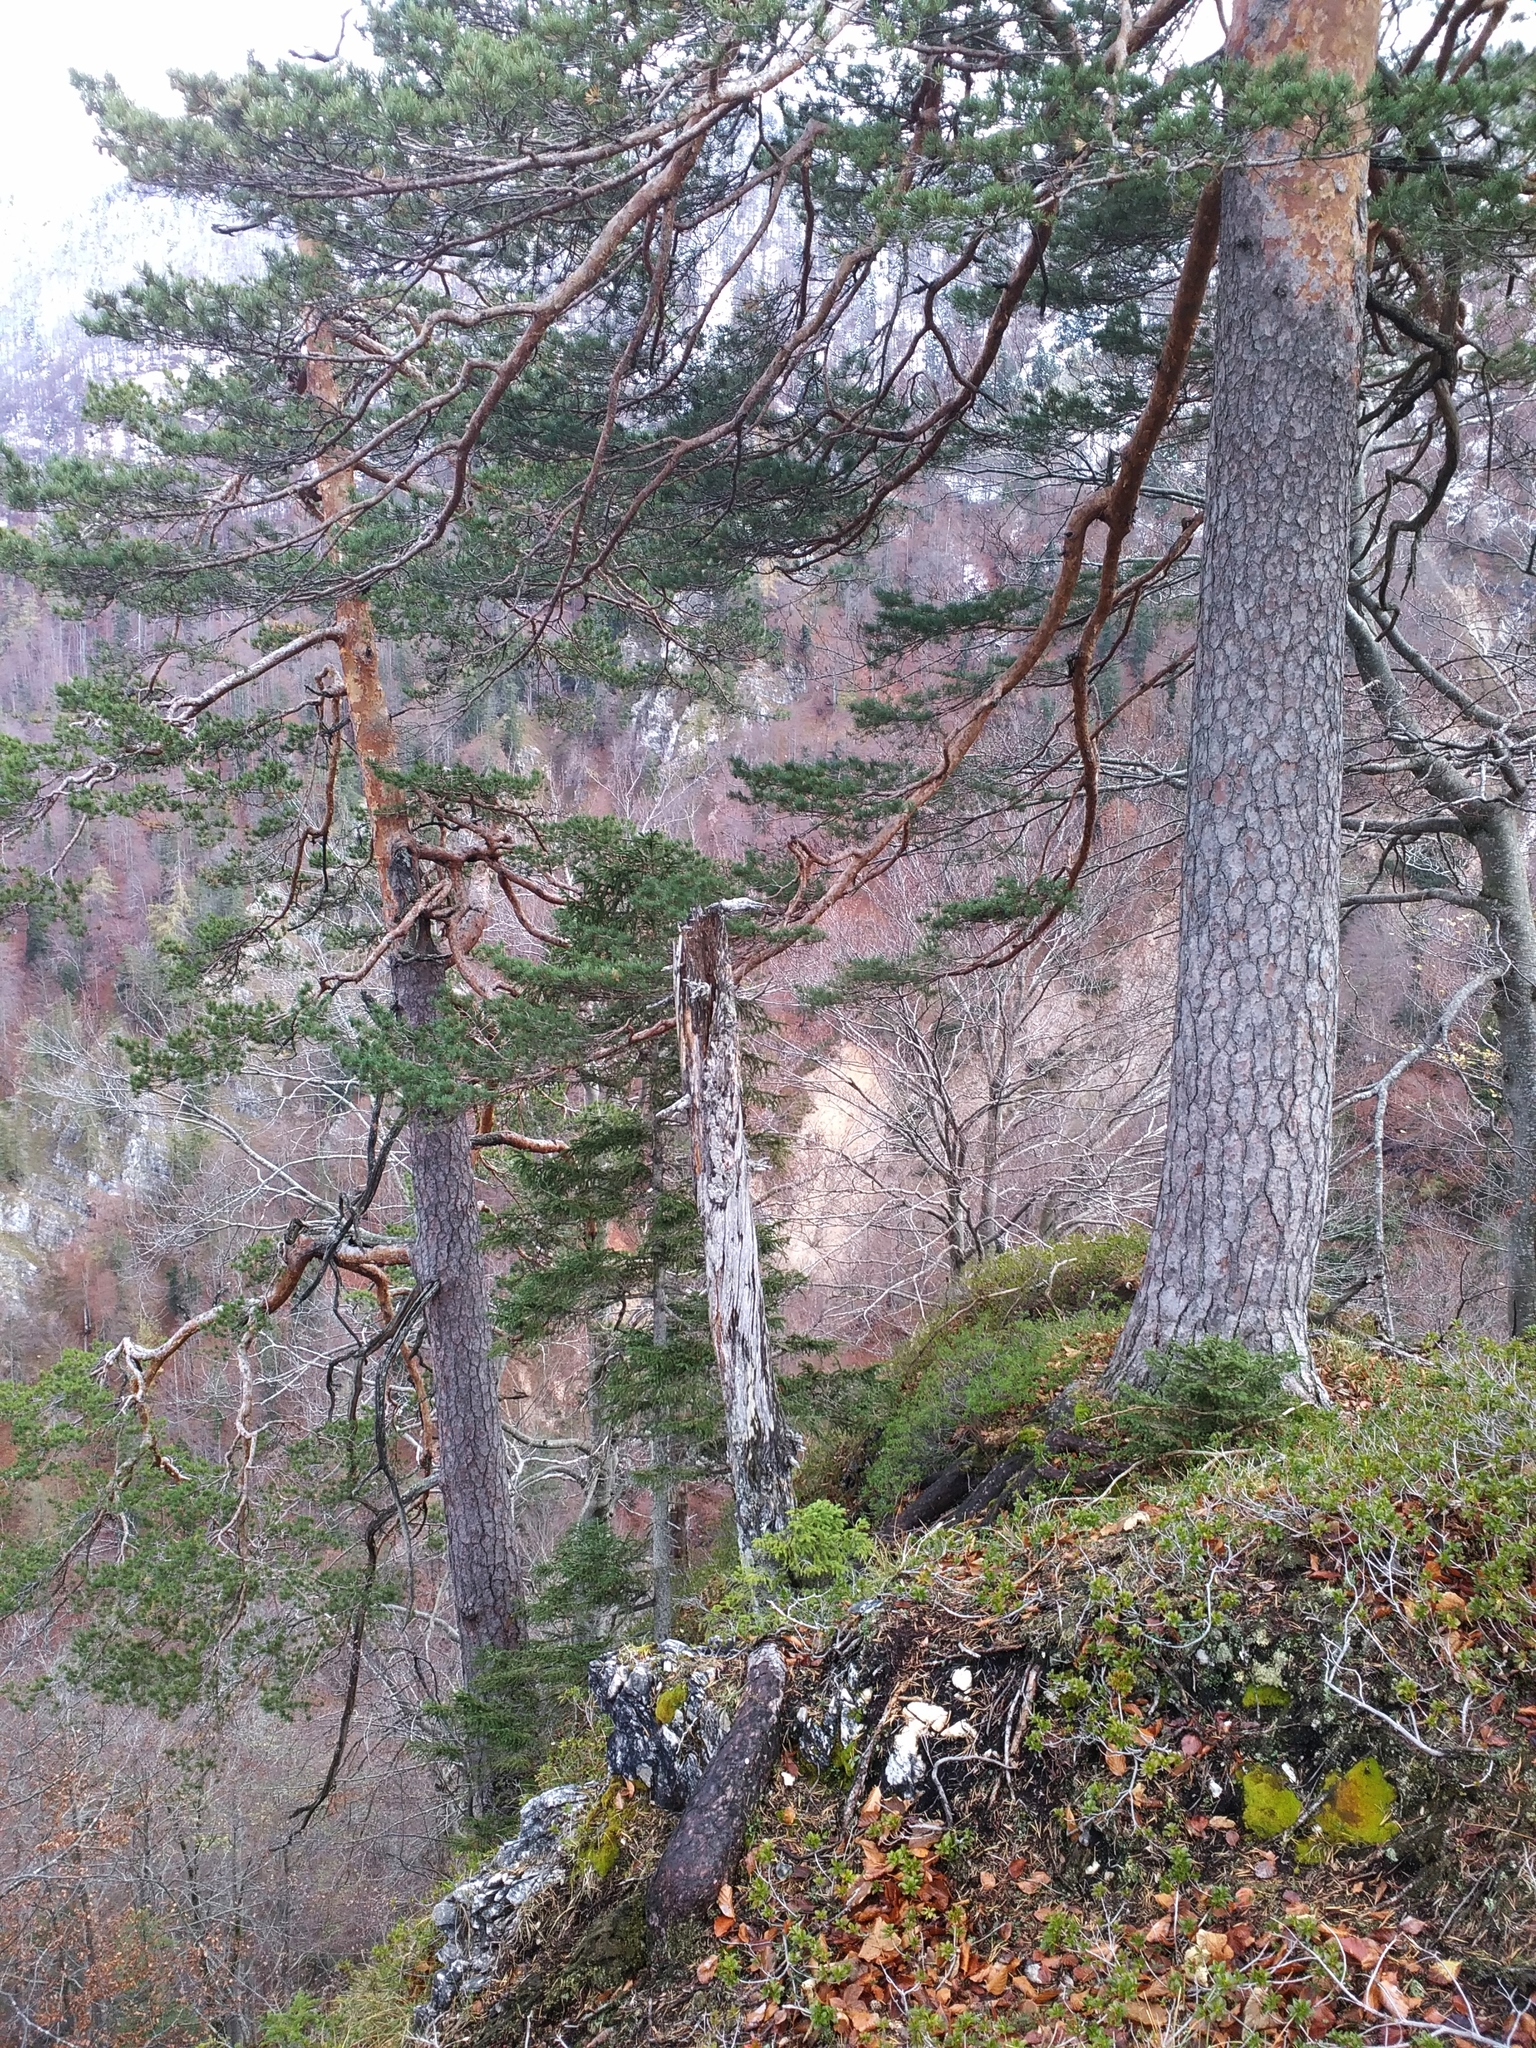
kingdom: Plantae
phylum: Tracheophyta
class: Pinopsida
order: Pinales
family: Pinaceae
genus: Pinus
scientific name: Pinus sylvestris
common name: Scots pine
